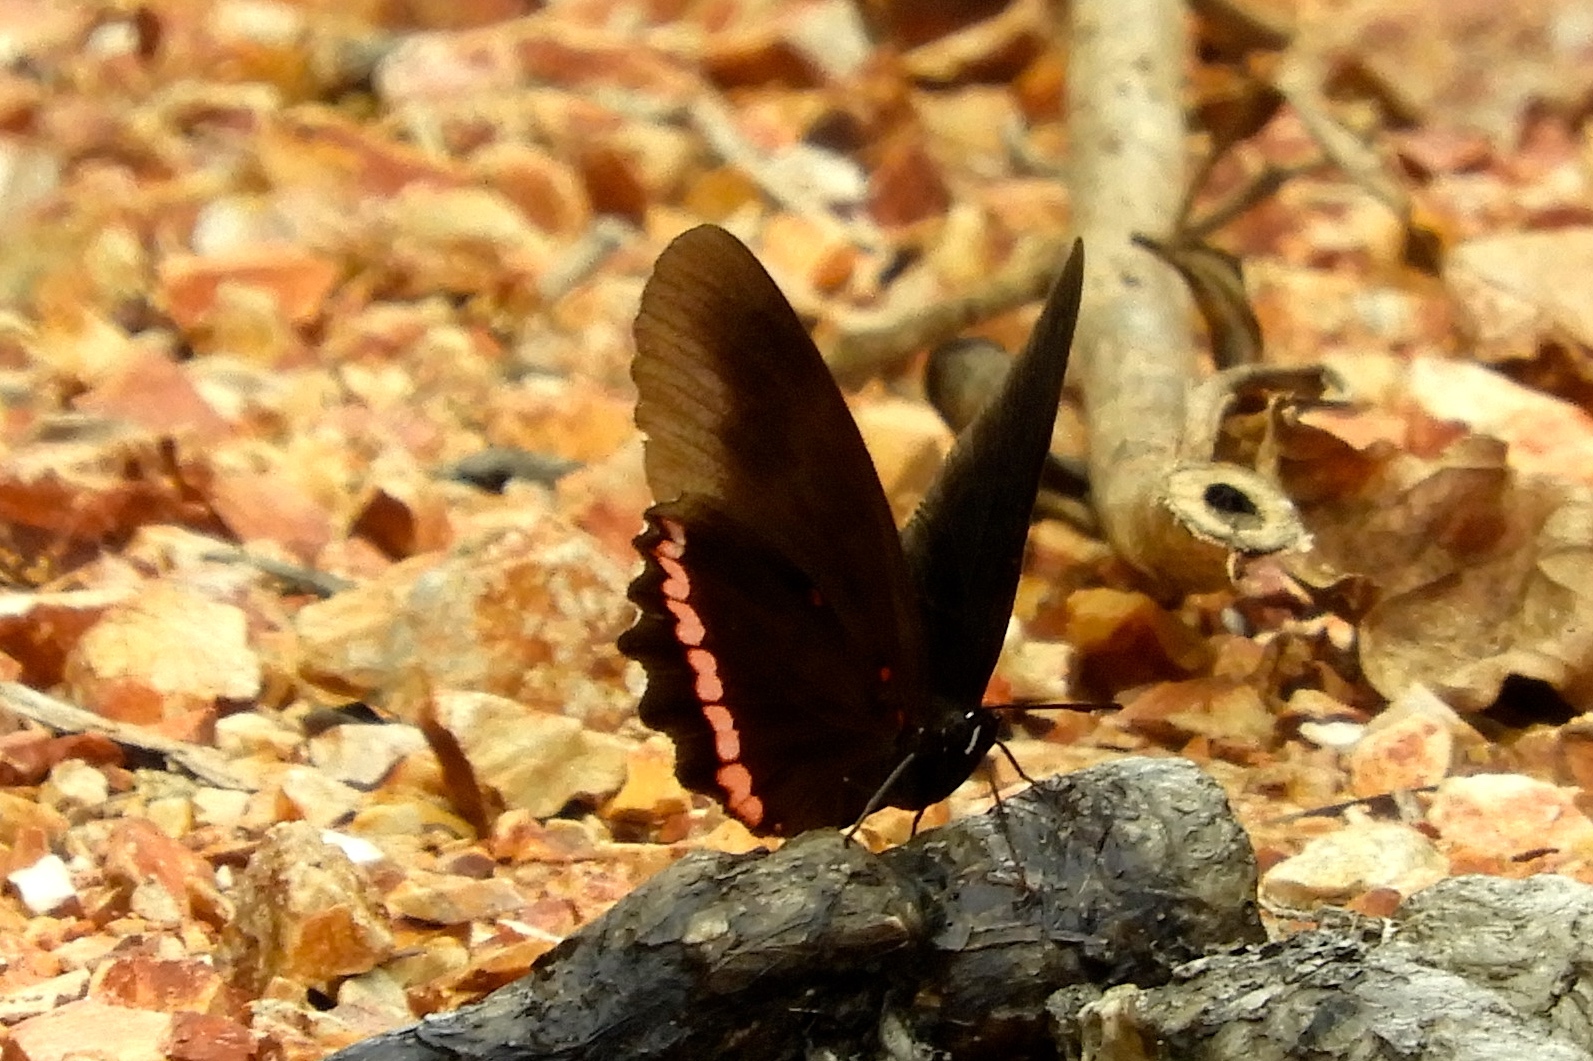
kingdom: Animalia
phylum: Arthropoda
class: Insecta
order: Lepidoptera
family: Nymphalidae
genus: Biblis
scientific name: Biblis aganisa
